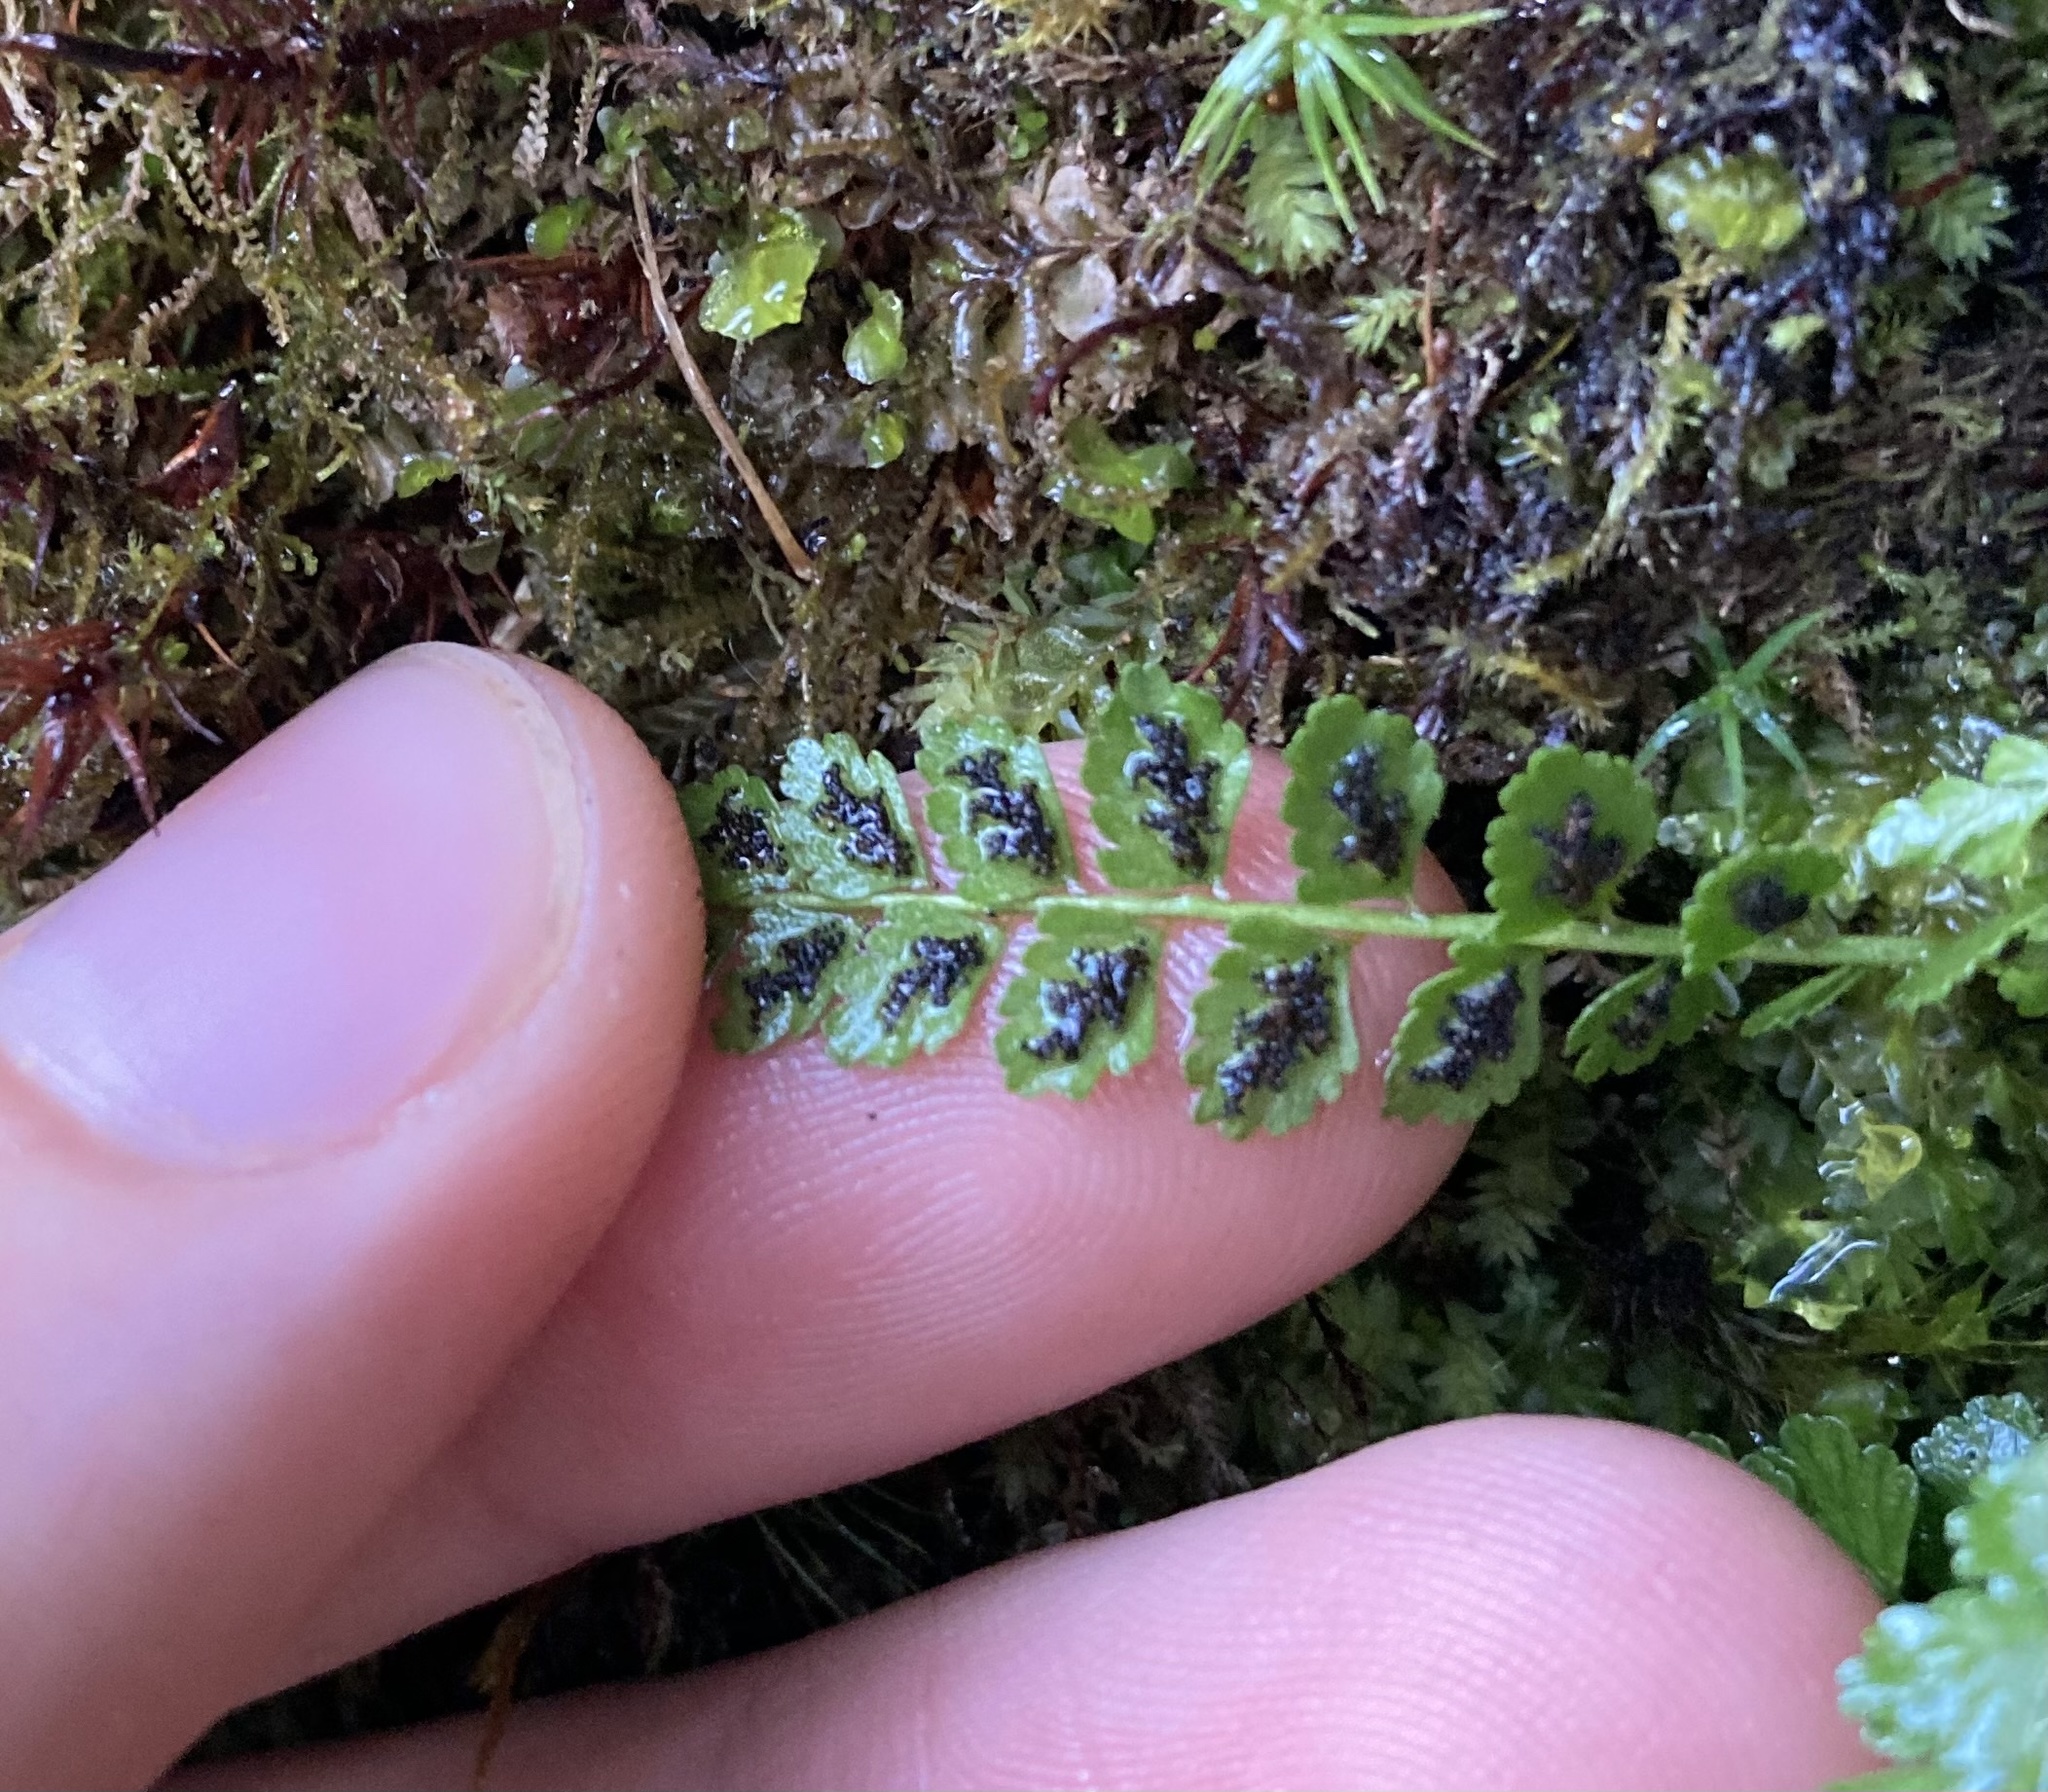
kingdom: Plantae
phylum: Tracheophyta
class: Polypodiopsida
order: Polypodiales
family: Aspleniaceae
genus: Asplenium
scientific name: Asplenium viride
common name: Green spleenwort
